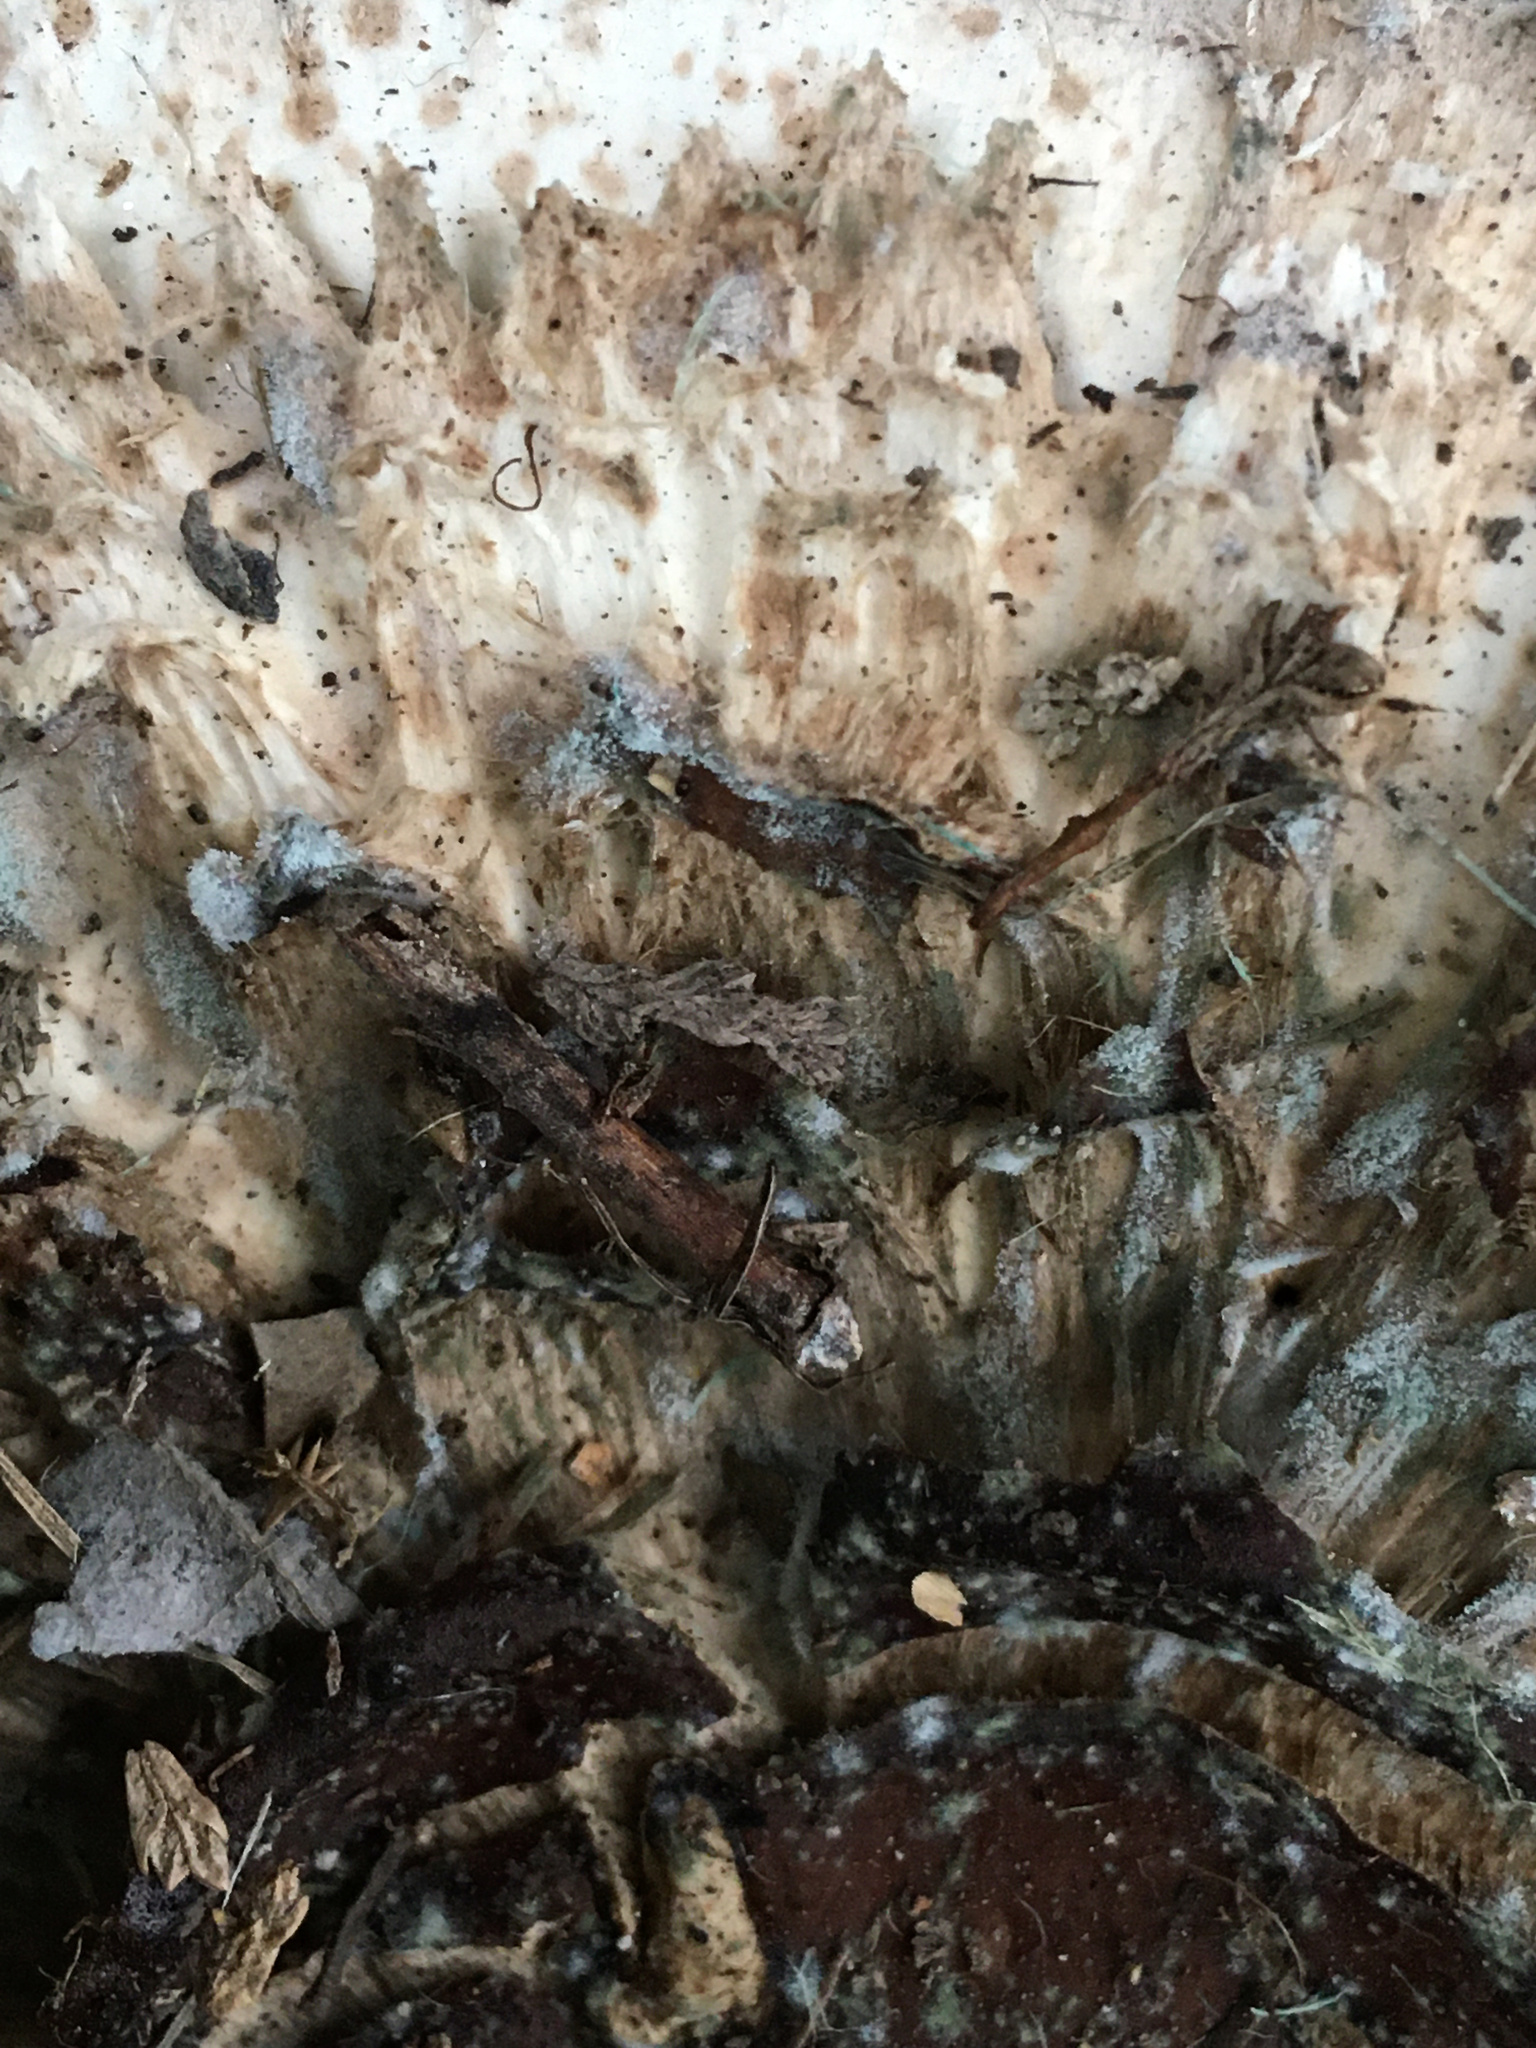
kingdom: Fungi
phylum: Basidiomycota
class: Agaricomycetes
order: Agaricales
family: Agaricaceae
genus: Chlorophyllum
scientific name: Chlorophyllum brunneum
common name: Brown parasol
